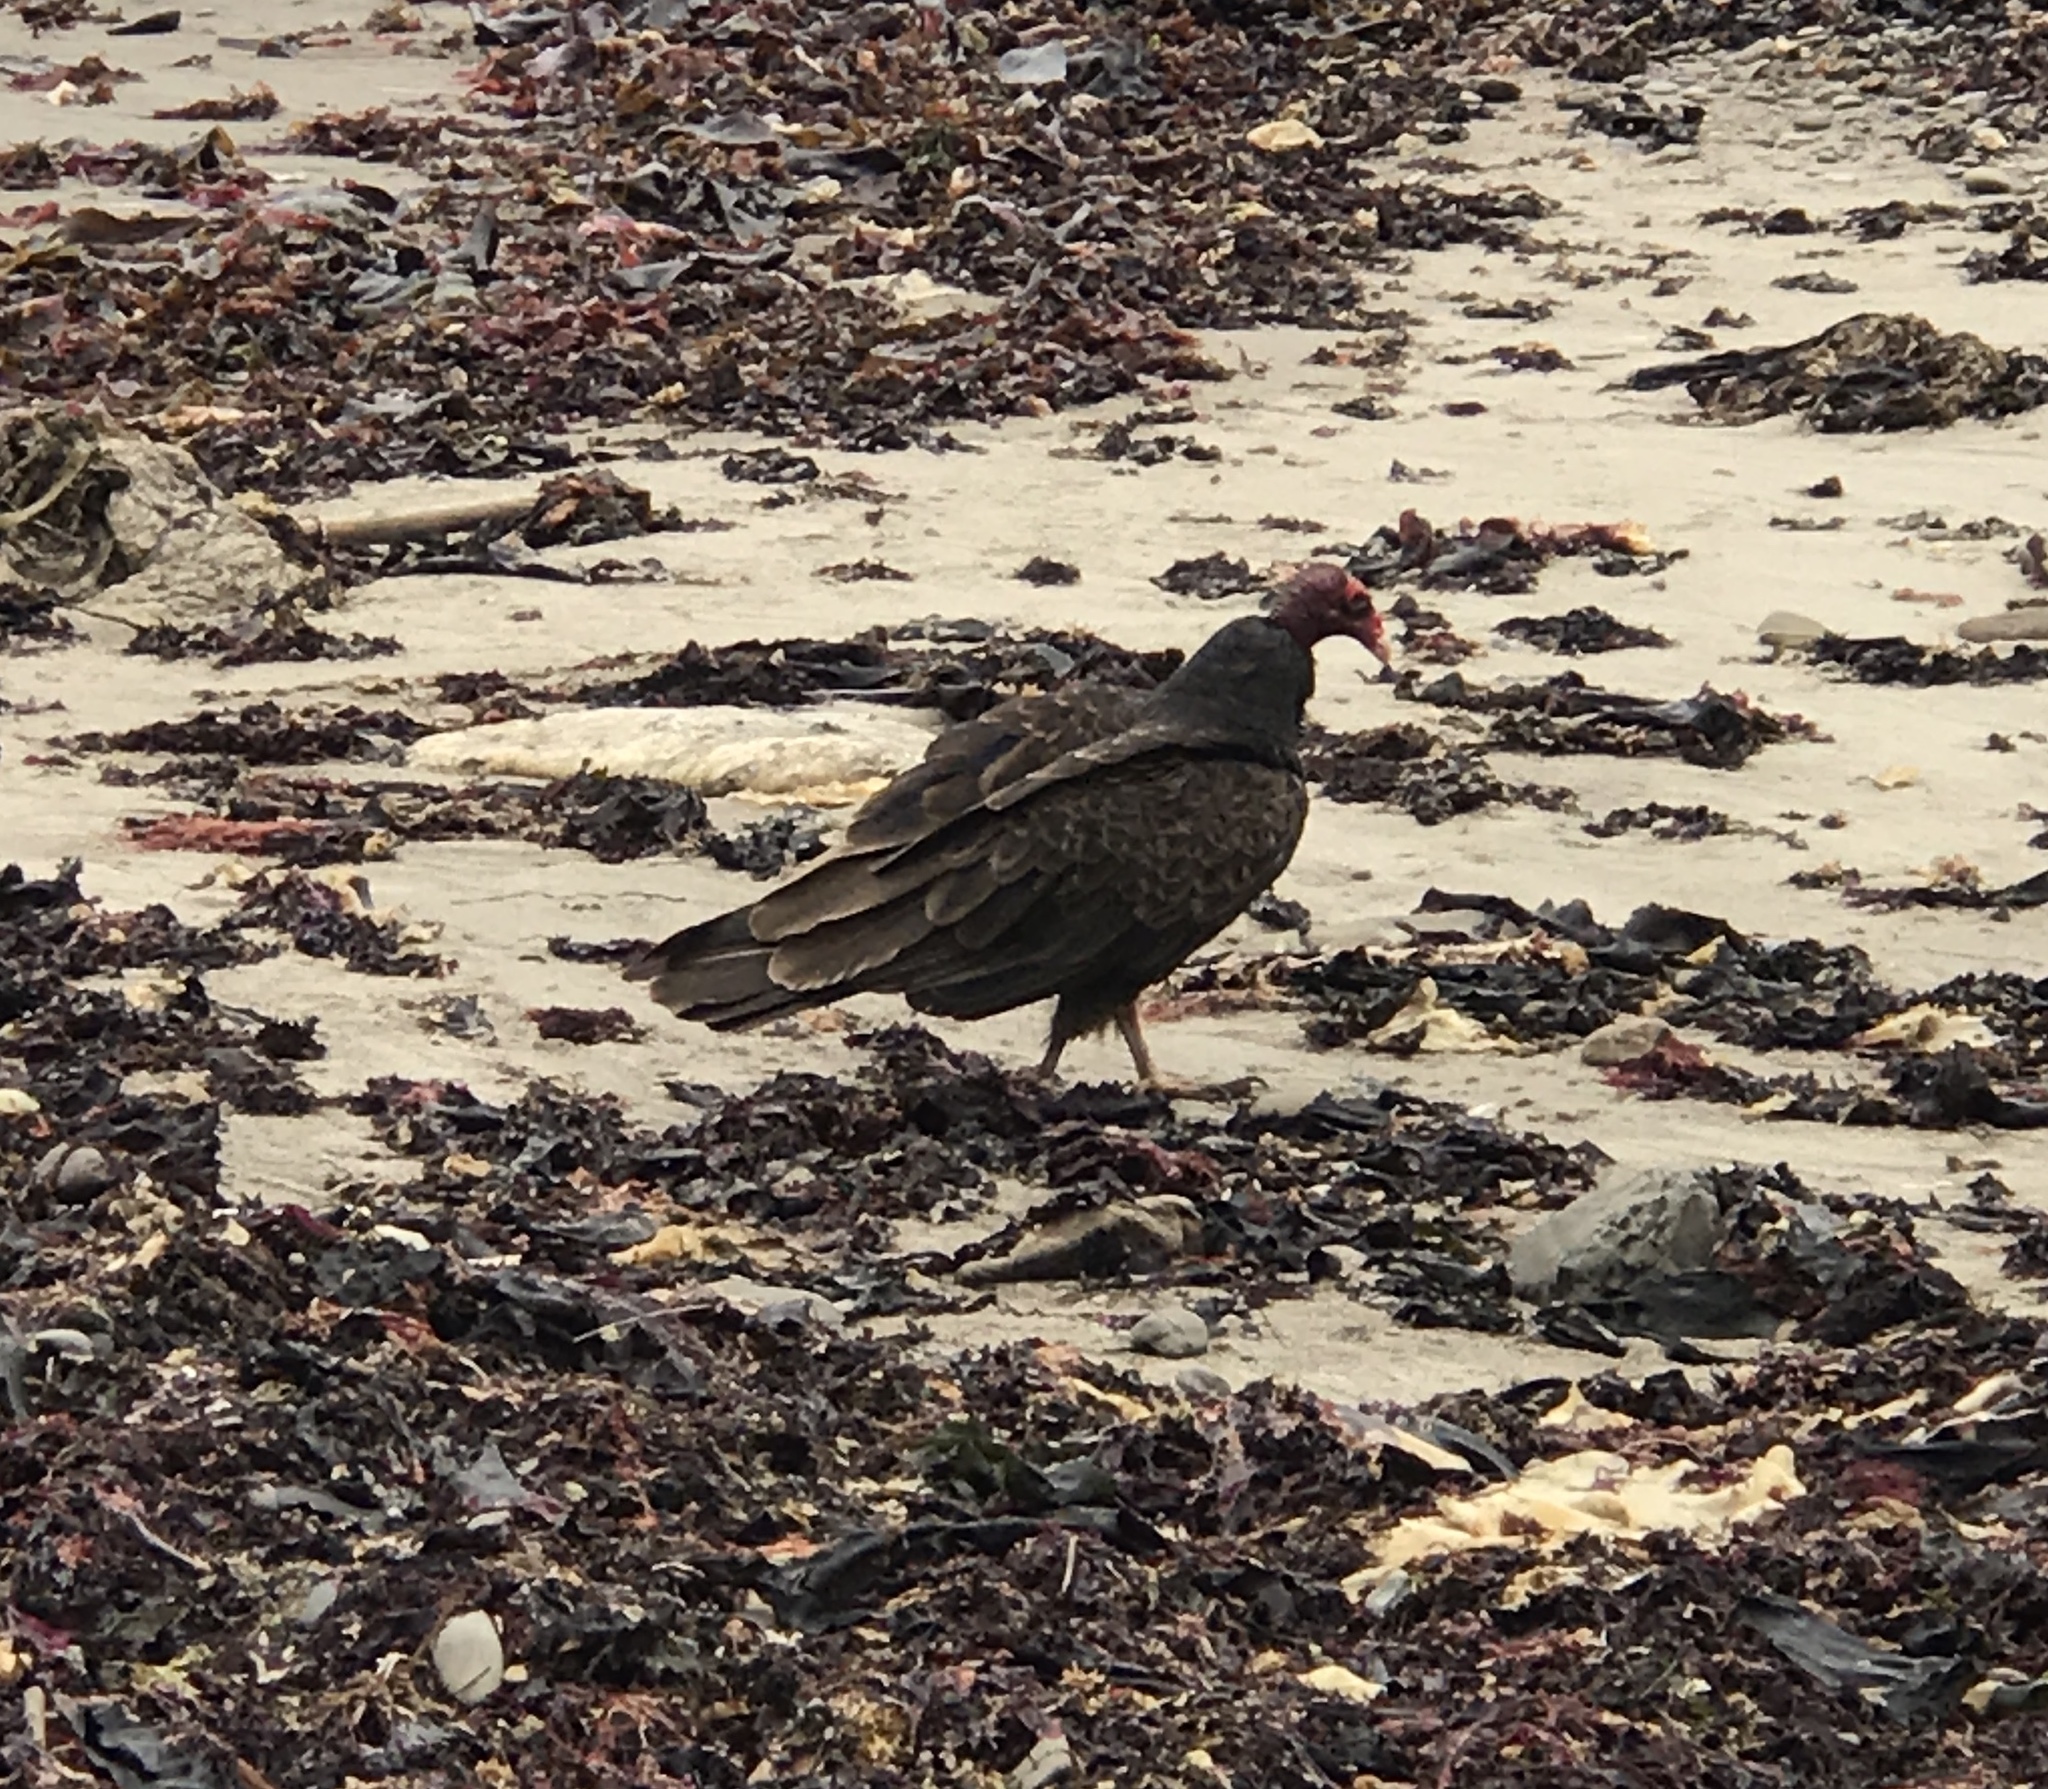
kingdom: Animalia
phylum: Chordata
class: Aves
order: Accipitriformes
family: Cathartidae
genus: Cathartes
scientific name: Cathartes aura
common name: Turkey vulture
